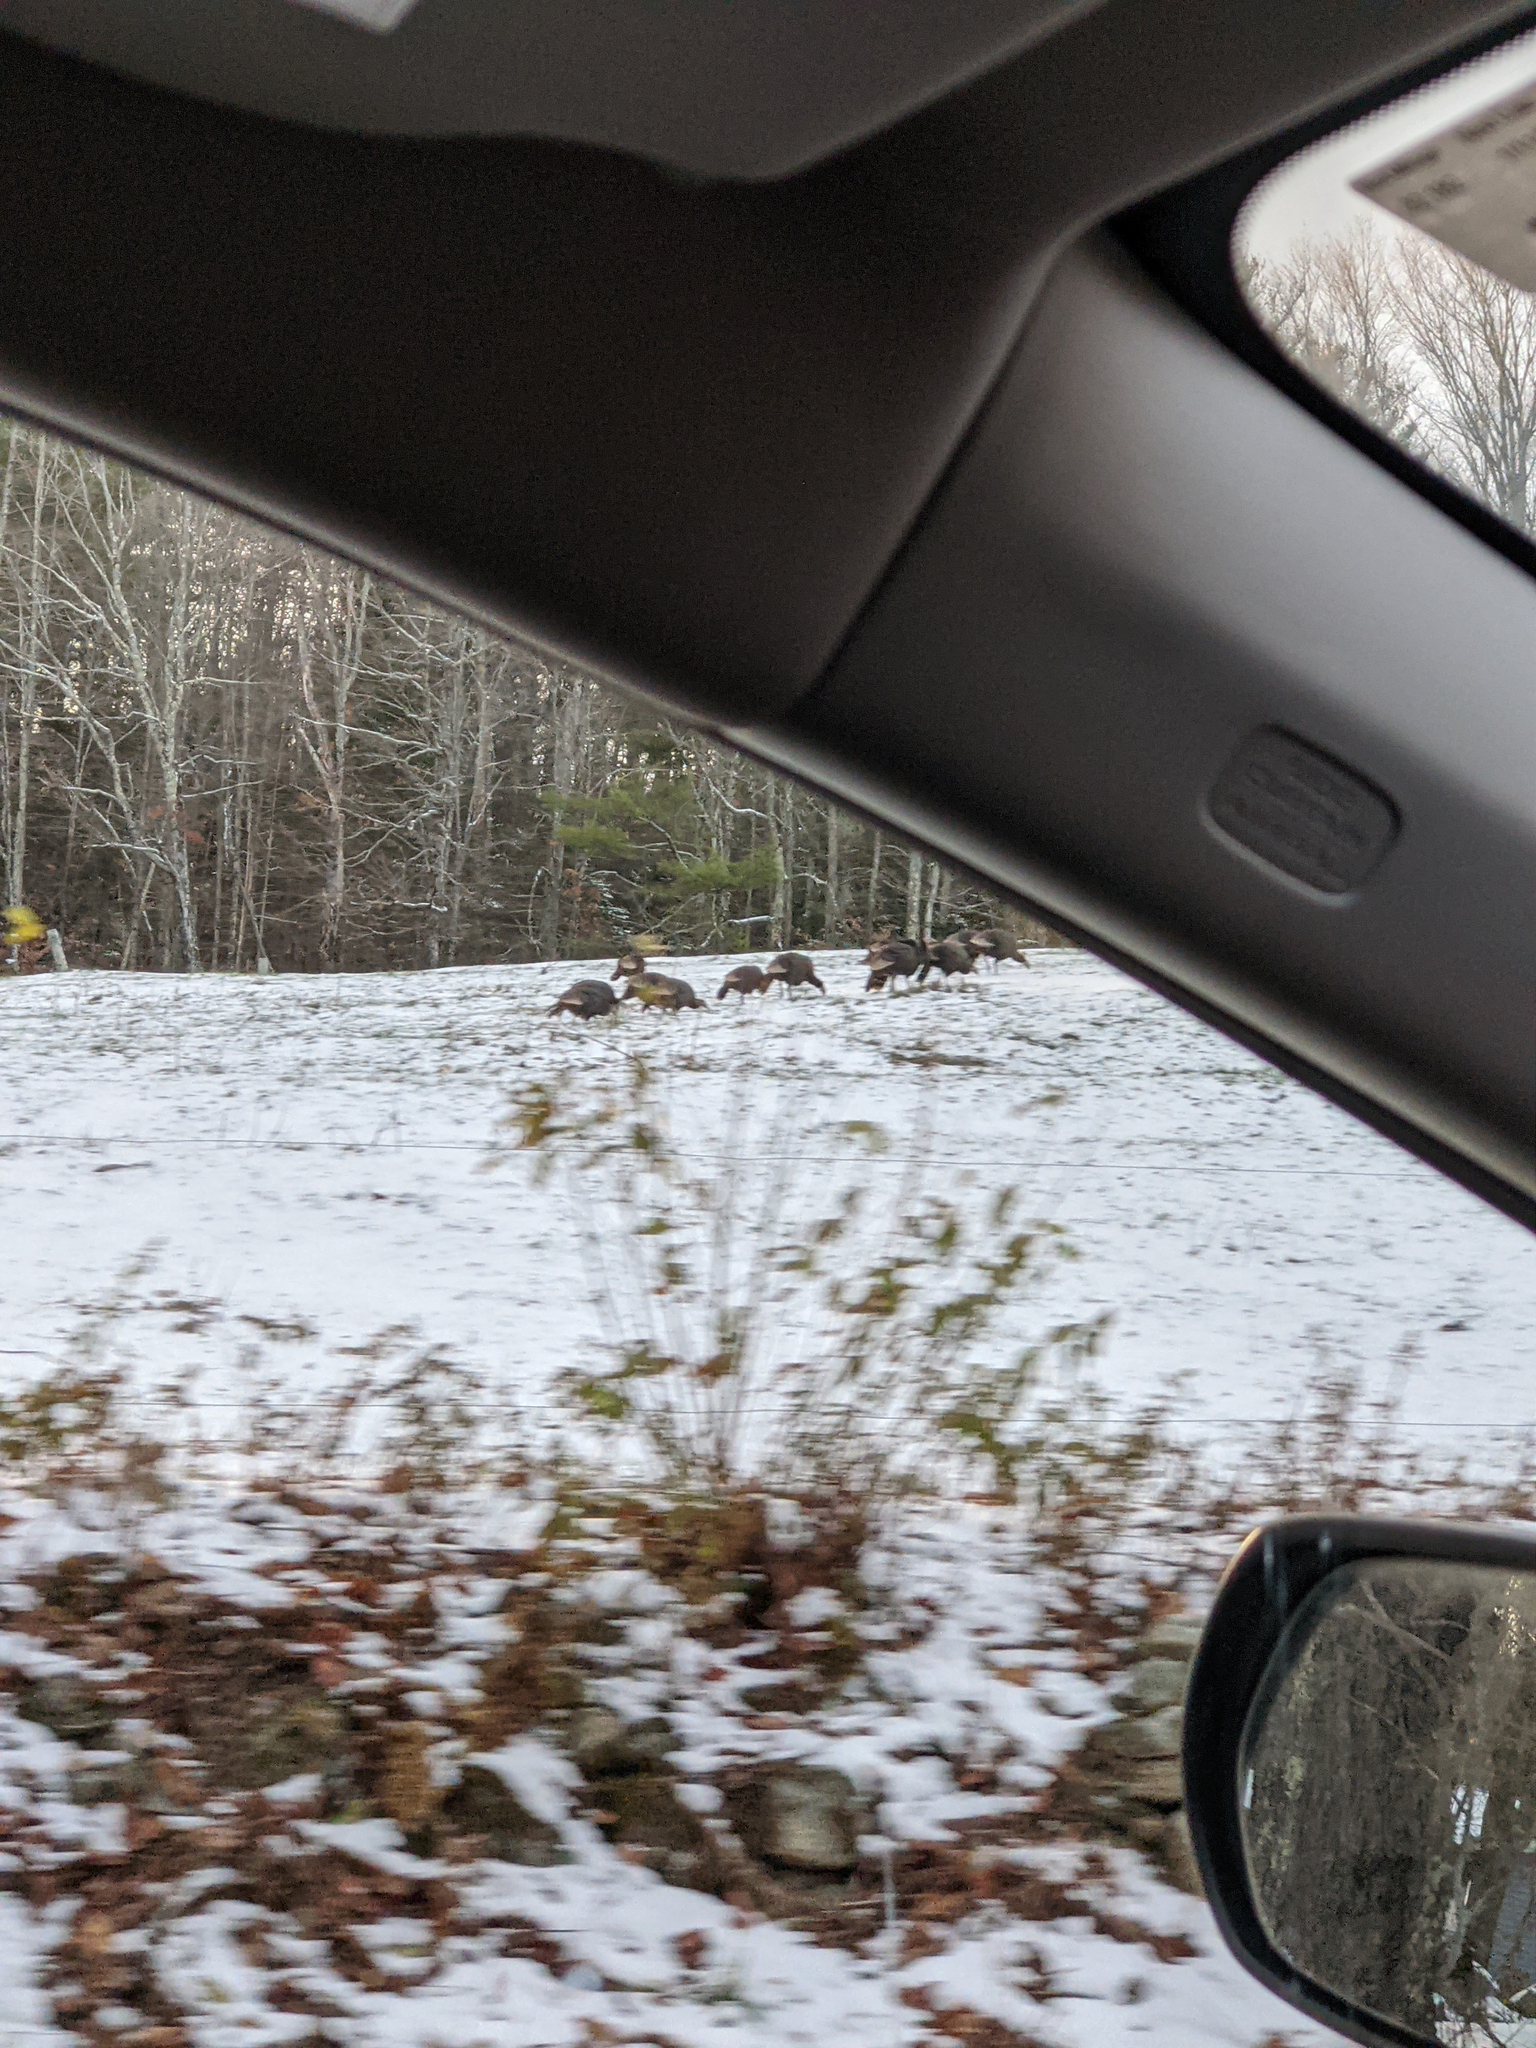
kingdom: Animalia
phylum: Chordata
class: Aves
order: Galliformes
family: Phasianidae
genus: Meleagris
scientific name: Meleagris gallopavo
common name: Wild turkey
